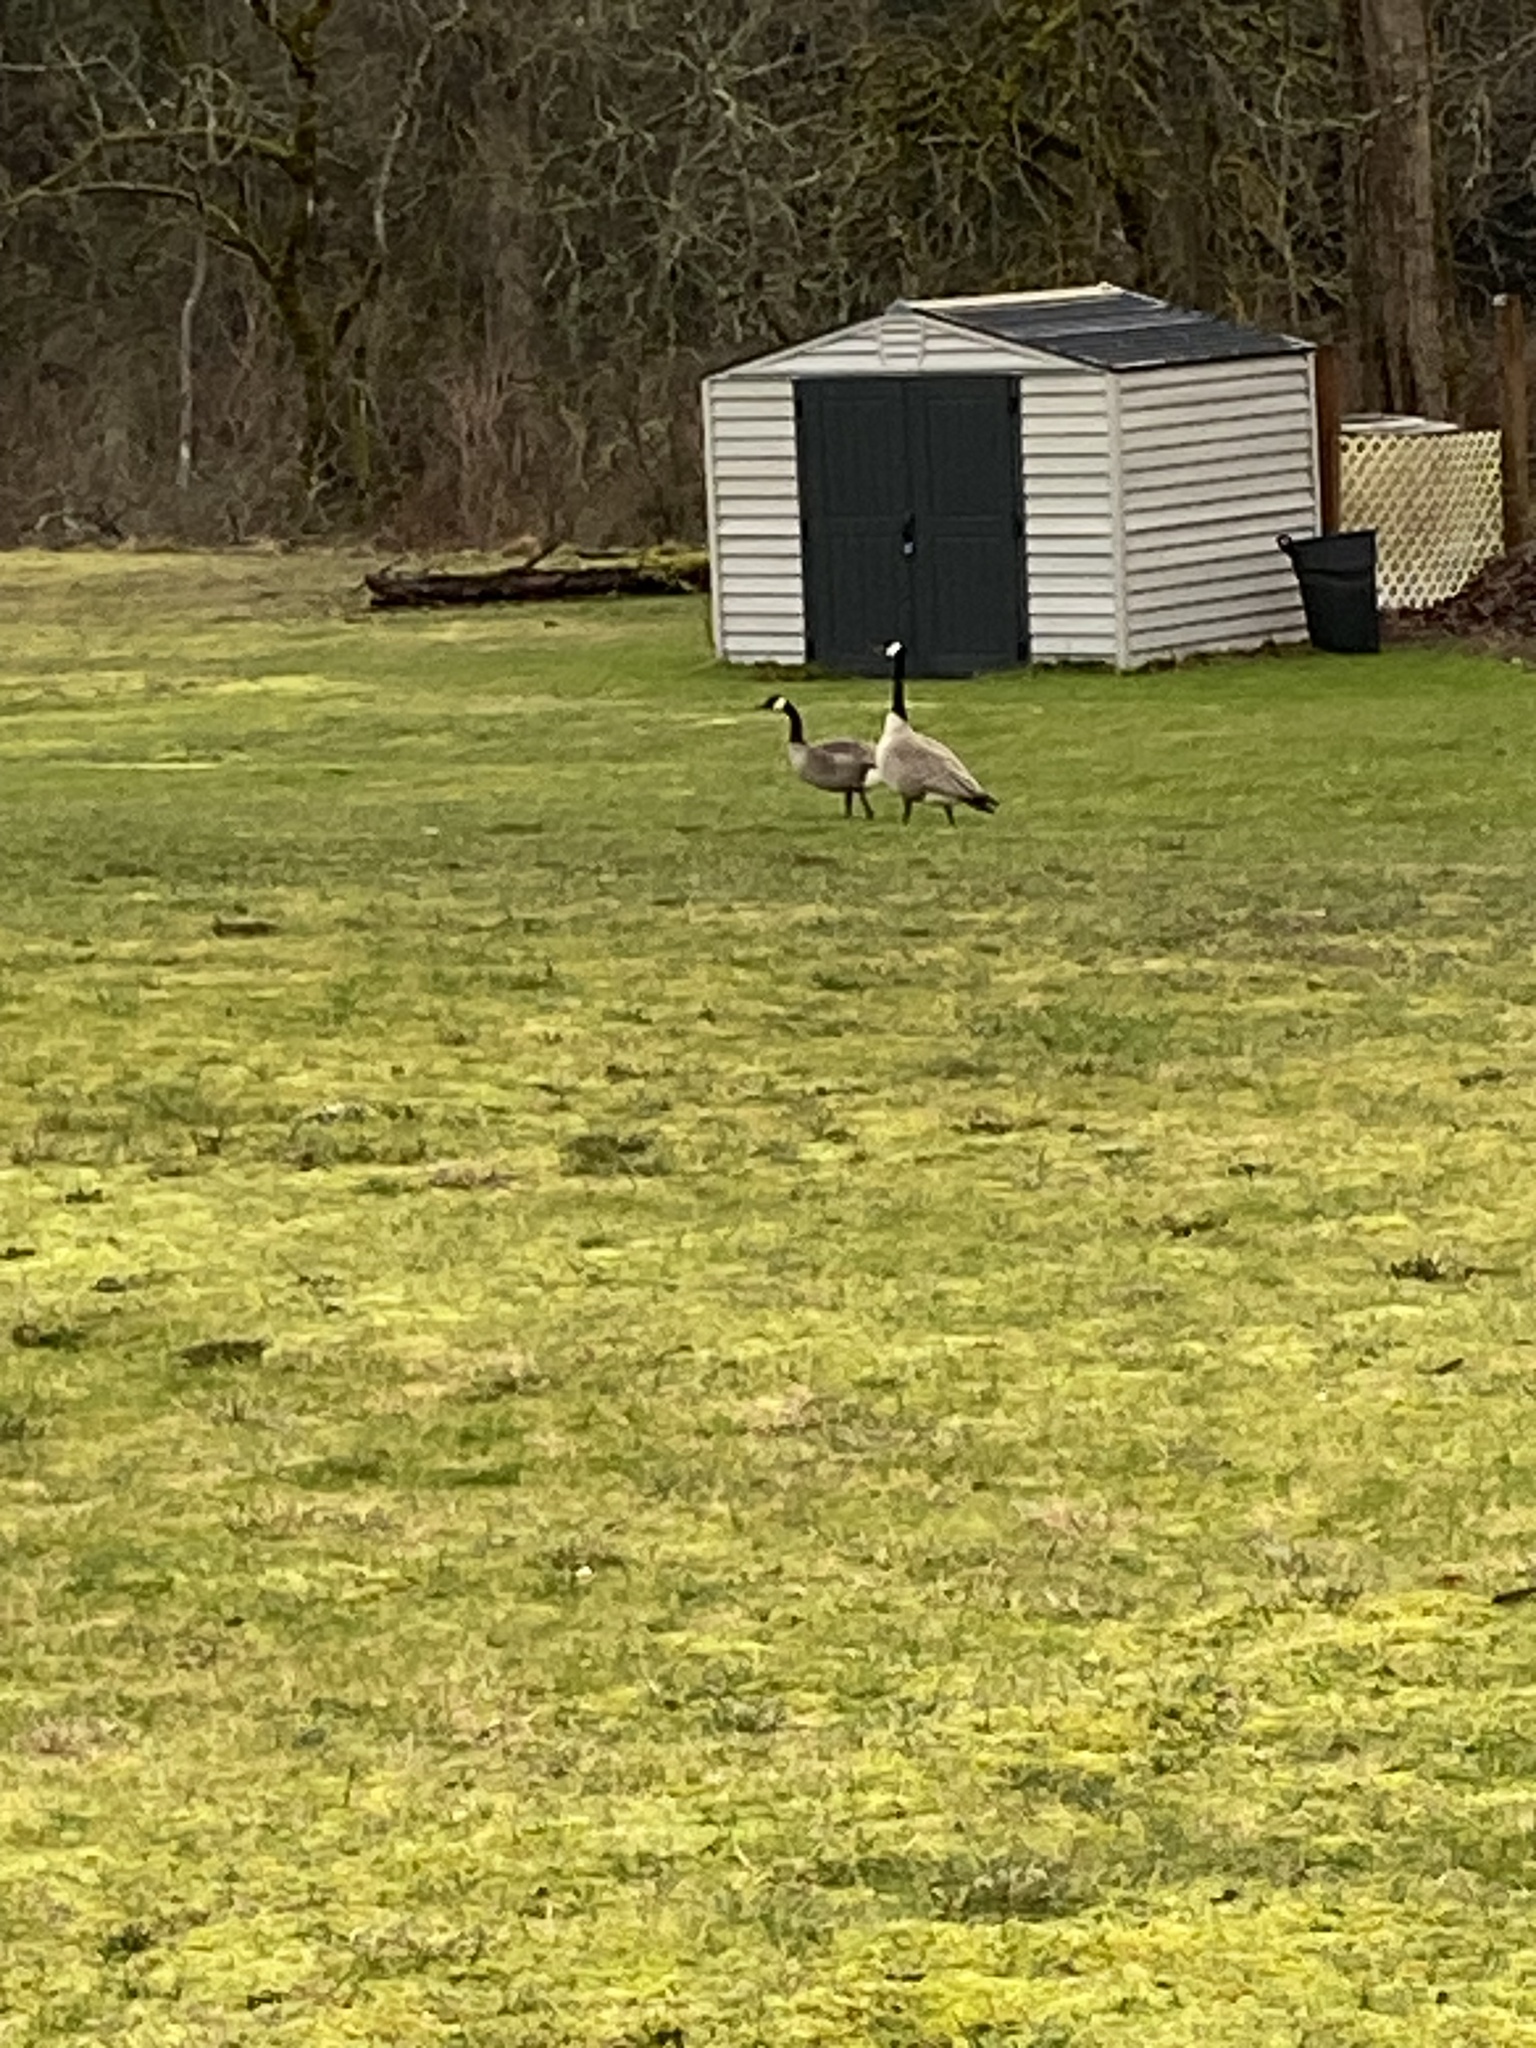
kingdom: Animalia
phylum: Chordata
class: Aves
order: Anseriformes
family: Anatidae
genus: Branta
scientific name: Branta canadensis
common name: Canada goose
